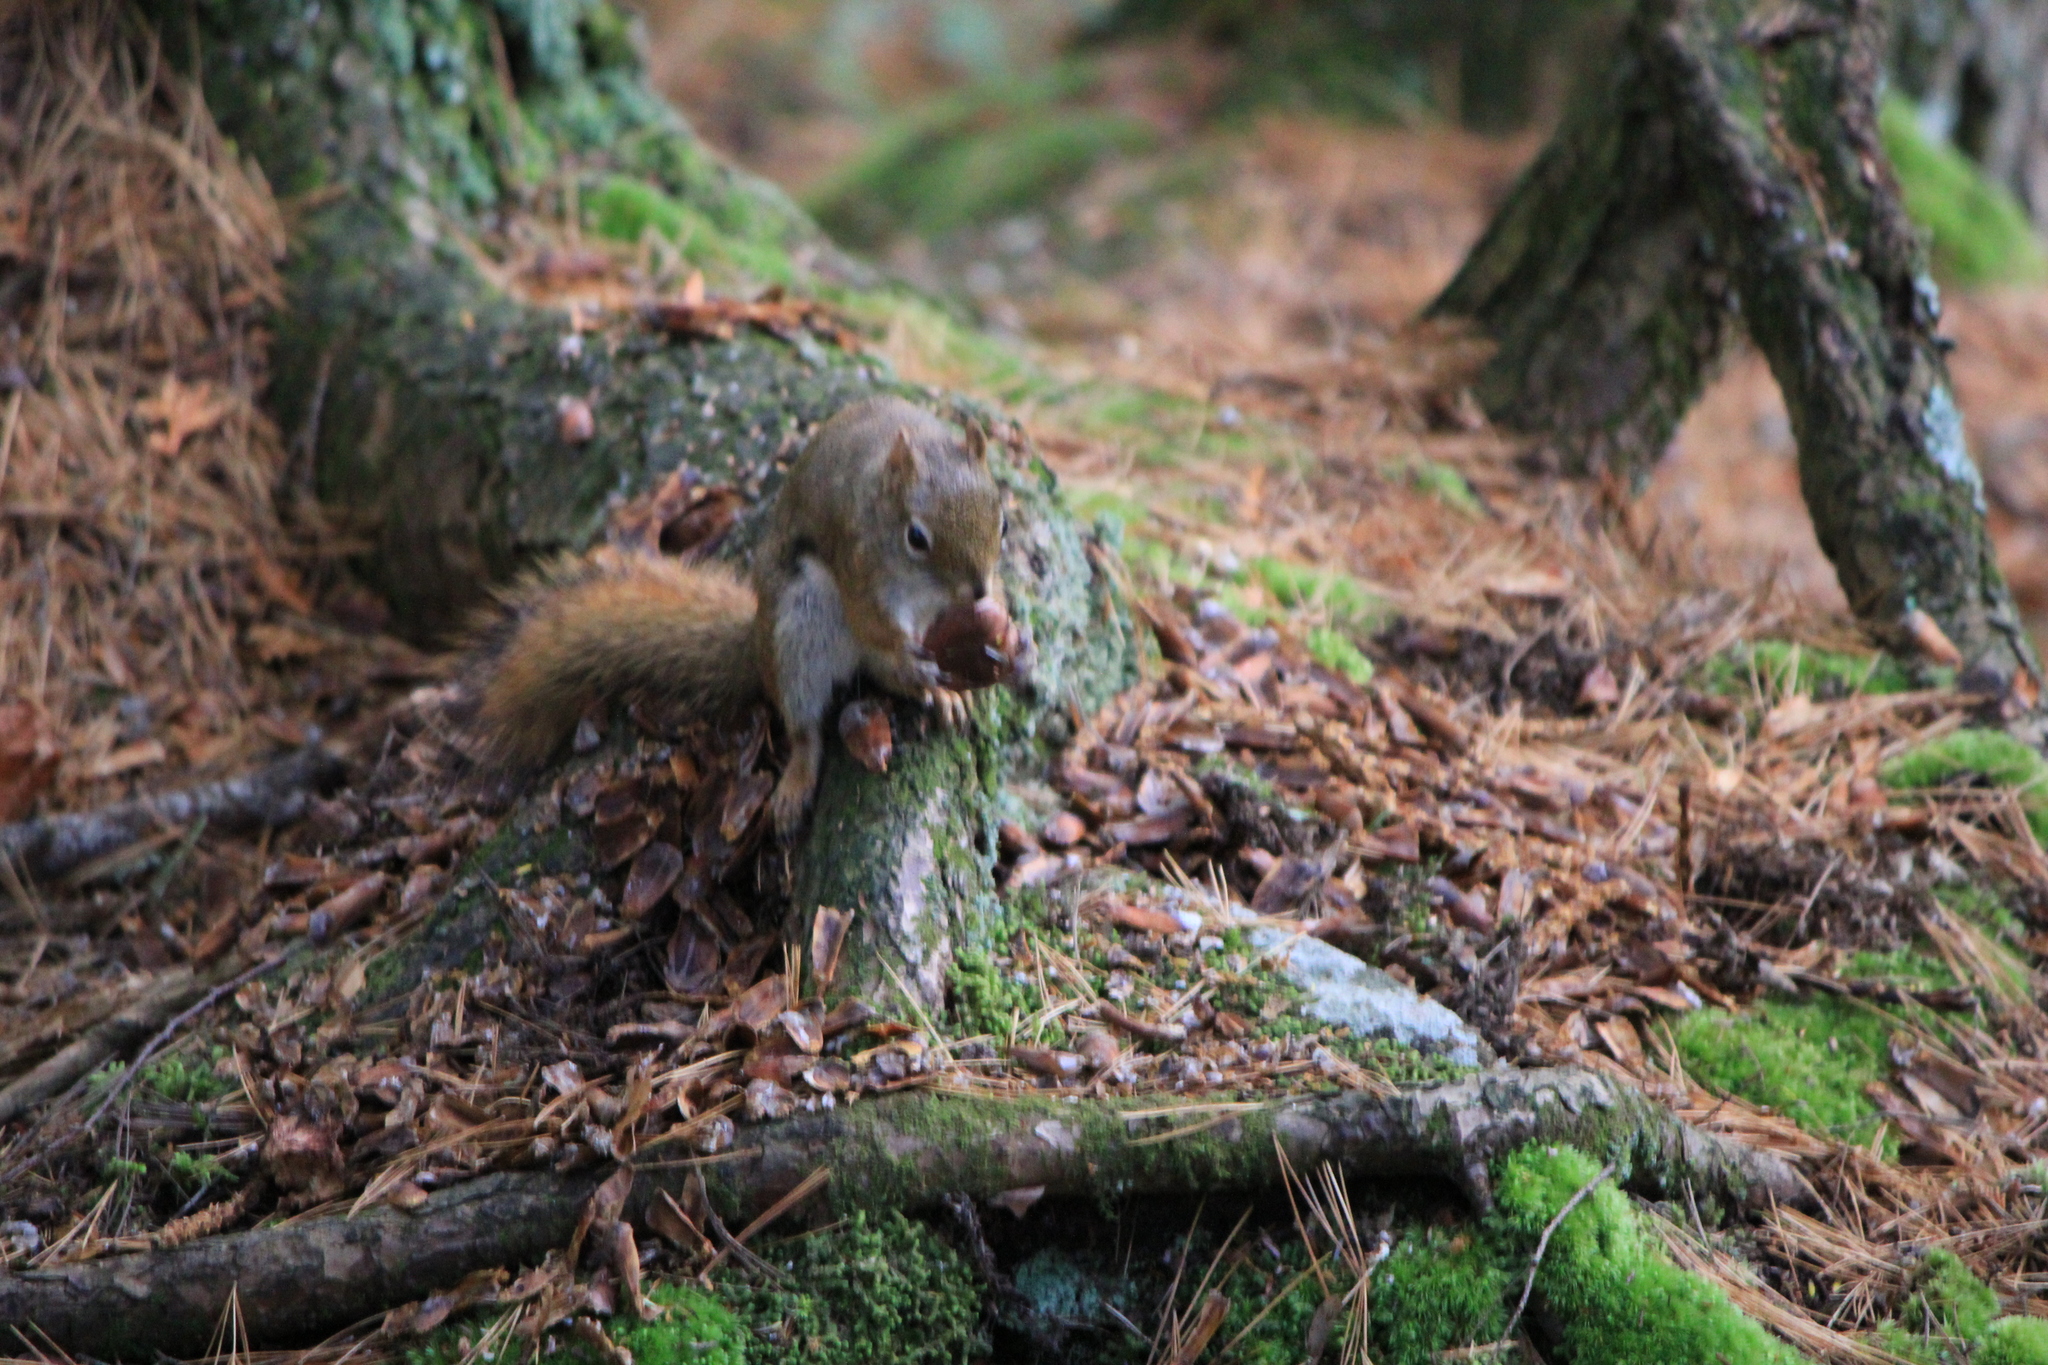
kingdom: Animalia
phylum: Chordata
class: Mammalia
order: Rodentia
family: Sciuridae
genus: Tamiasciurus
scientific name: Tamiasciurus hudsonicus
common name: Red squirrel
